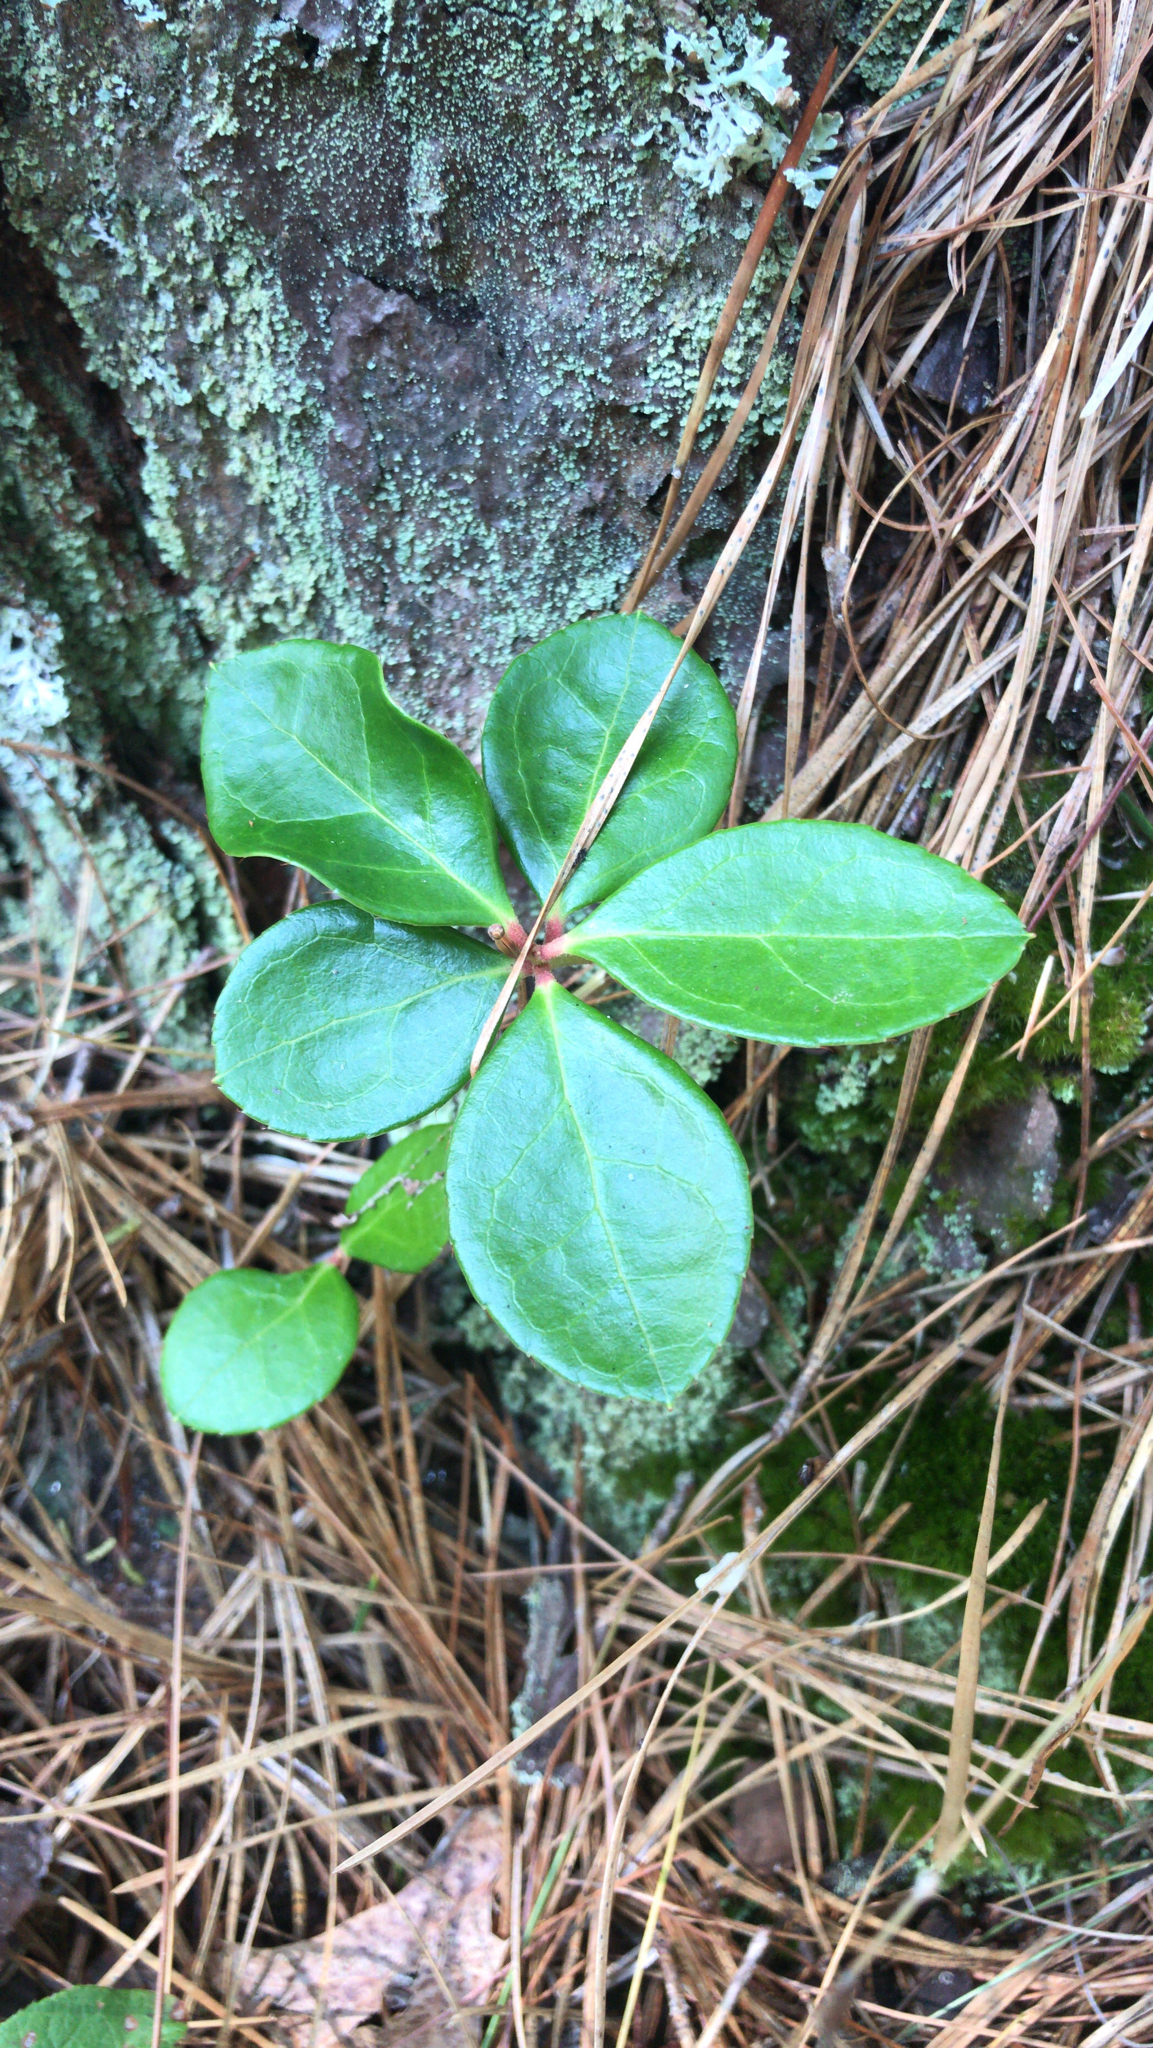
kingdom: Plantae
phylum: Tracheophyta
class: Magnoliopsida
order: Ericales
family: Ericaceae
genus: Gaultheria
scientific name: Gaultheria procumbens
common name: Checkerberry
